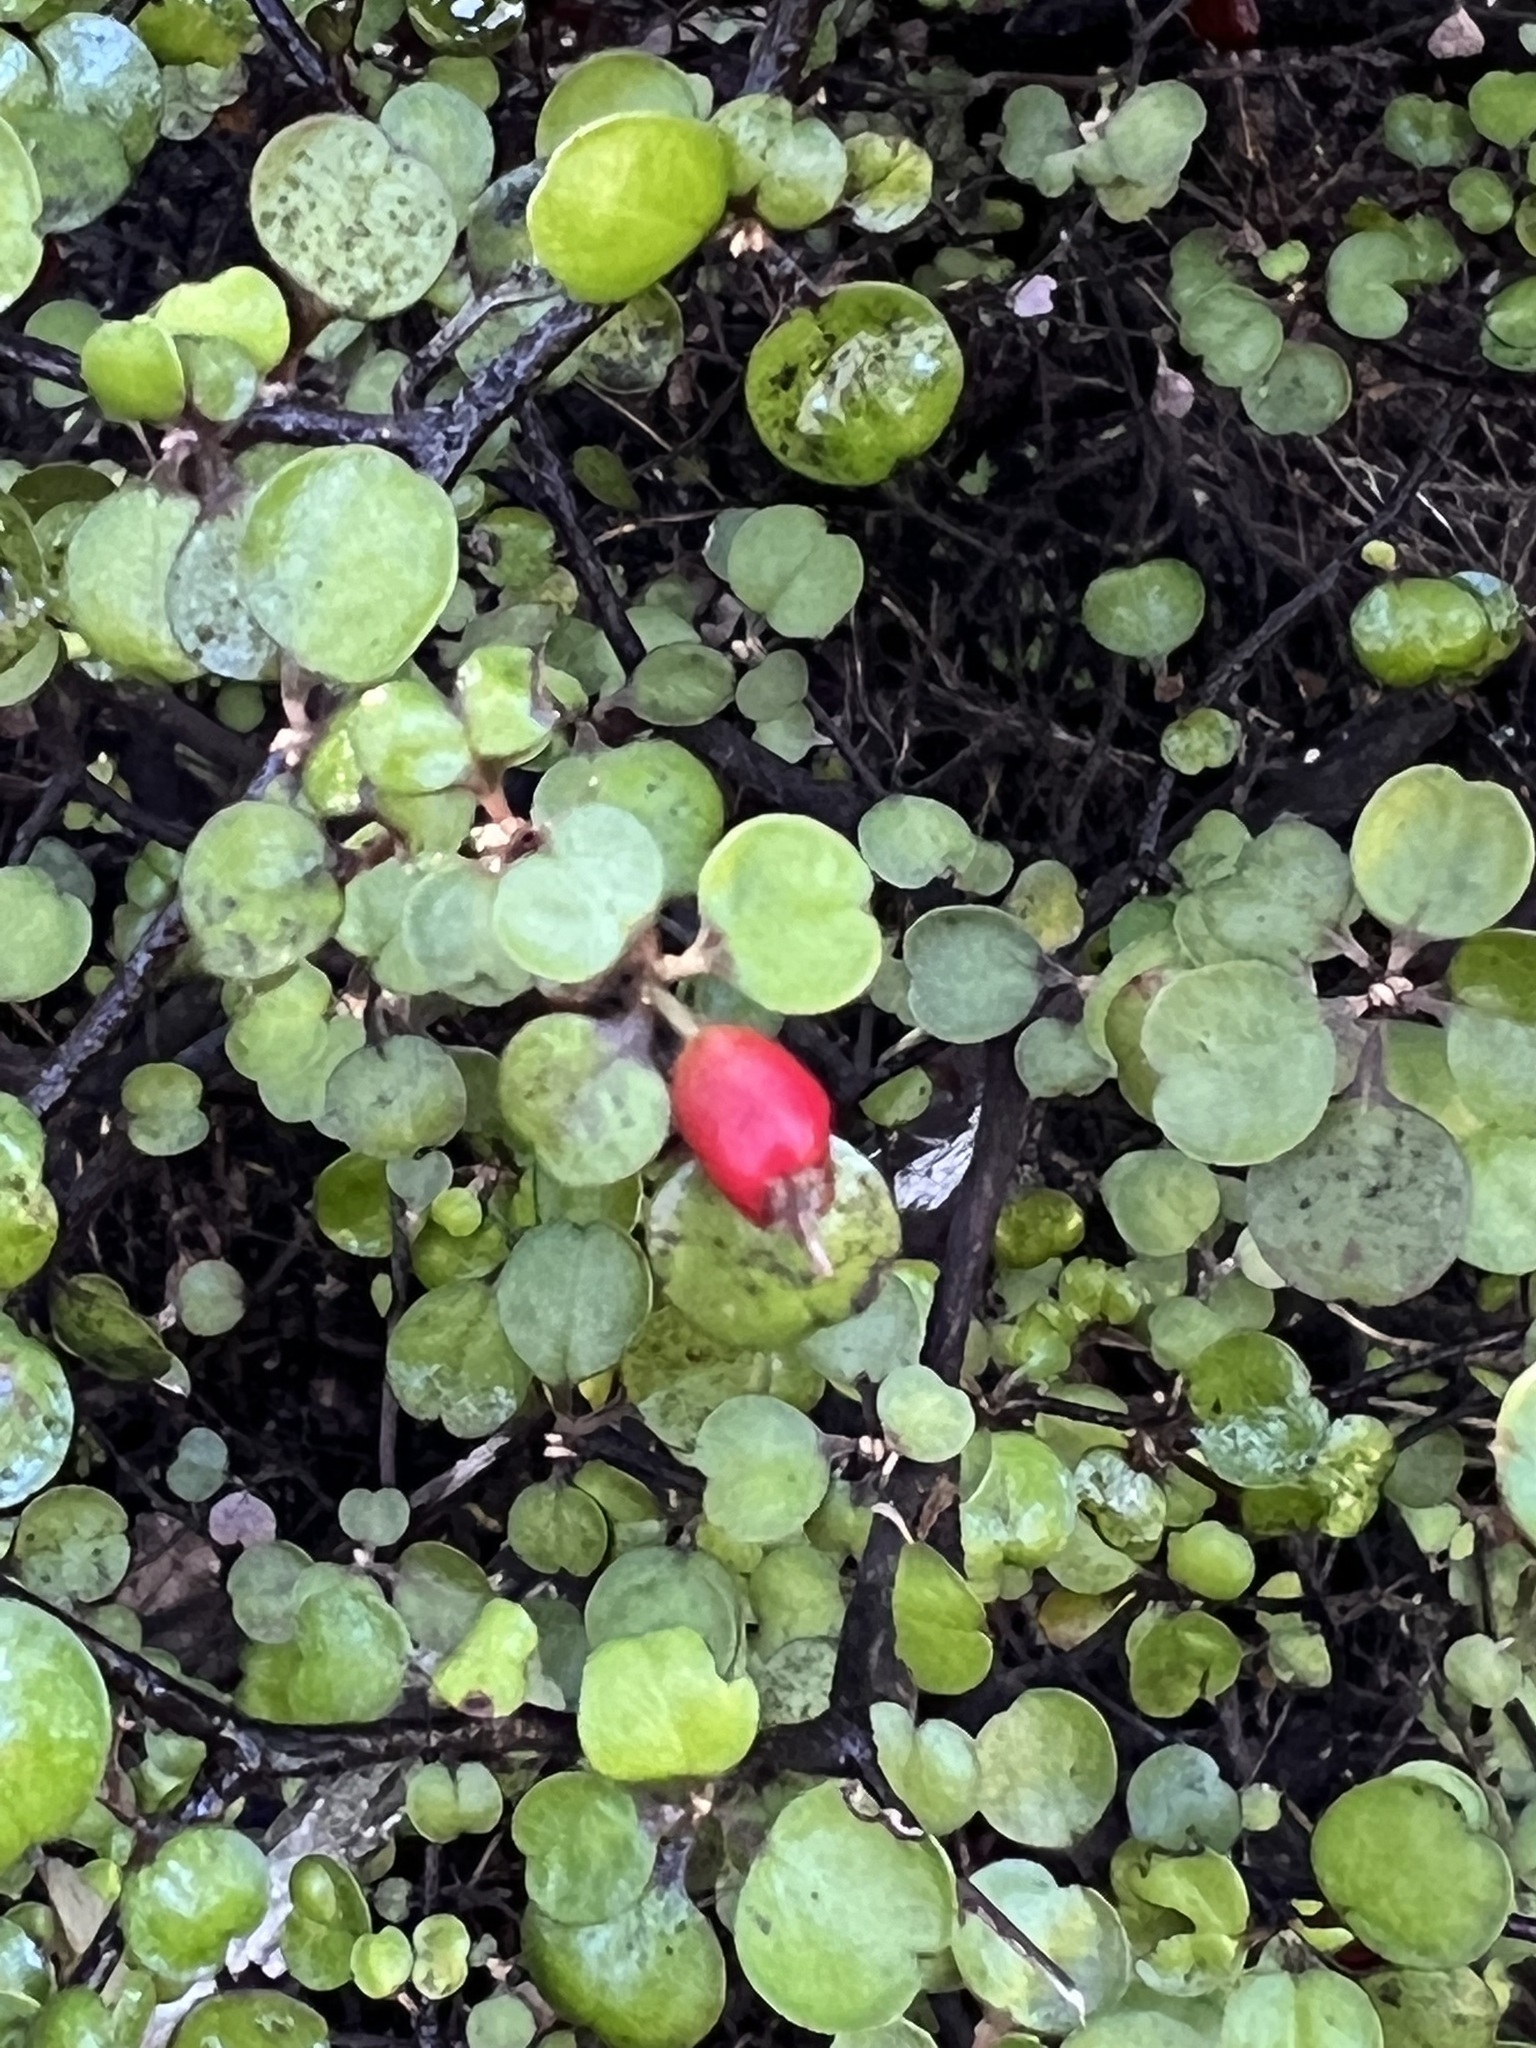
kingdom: Plantae
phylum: Tracheophyta
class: Magnoliopsida
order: Asterales
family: Argophyllaceae
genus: Corokia
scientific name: Corokia cotoneaster
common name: Wire nettingbush
